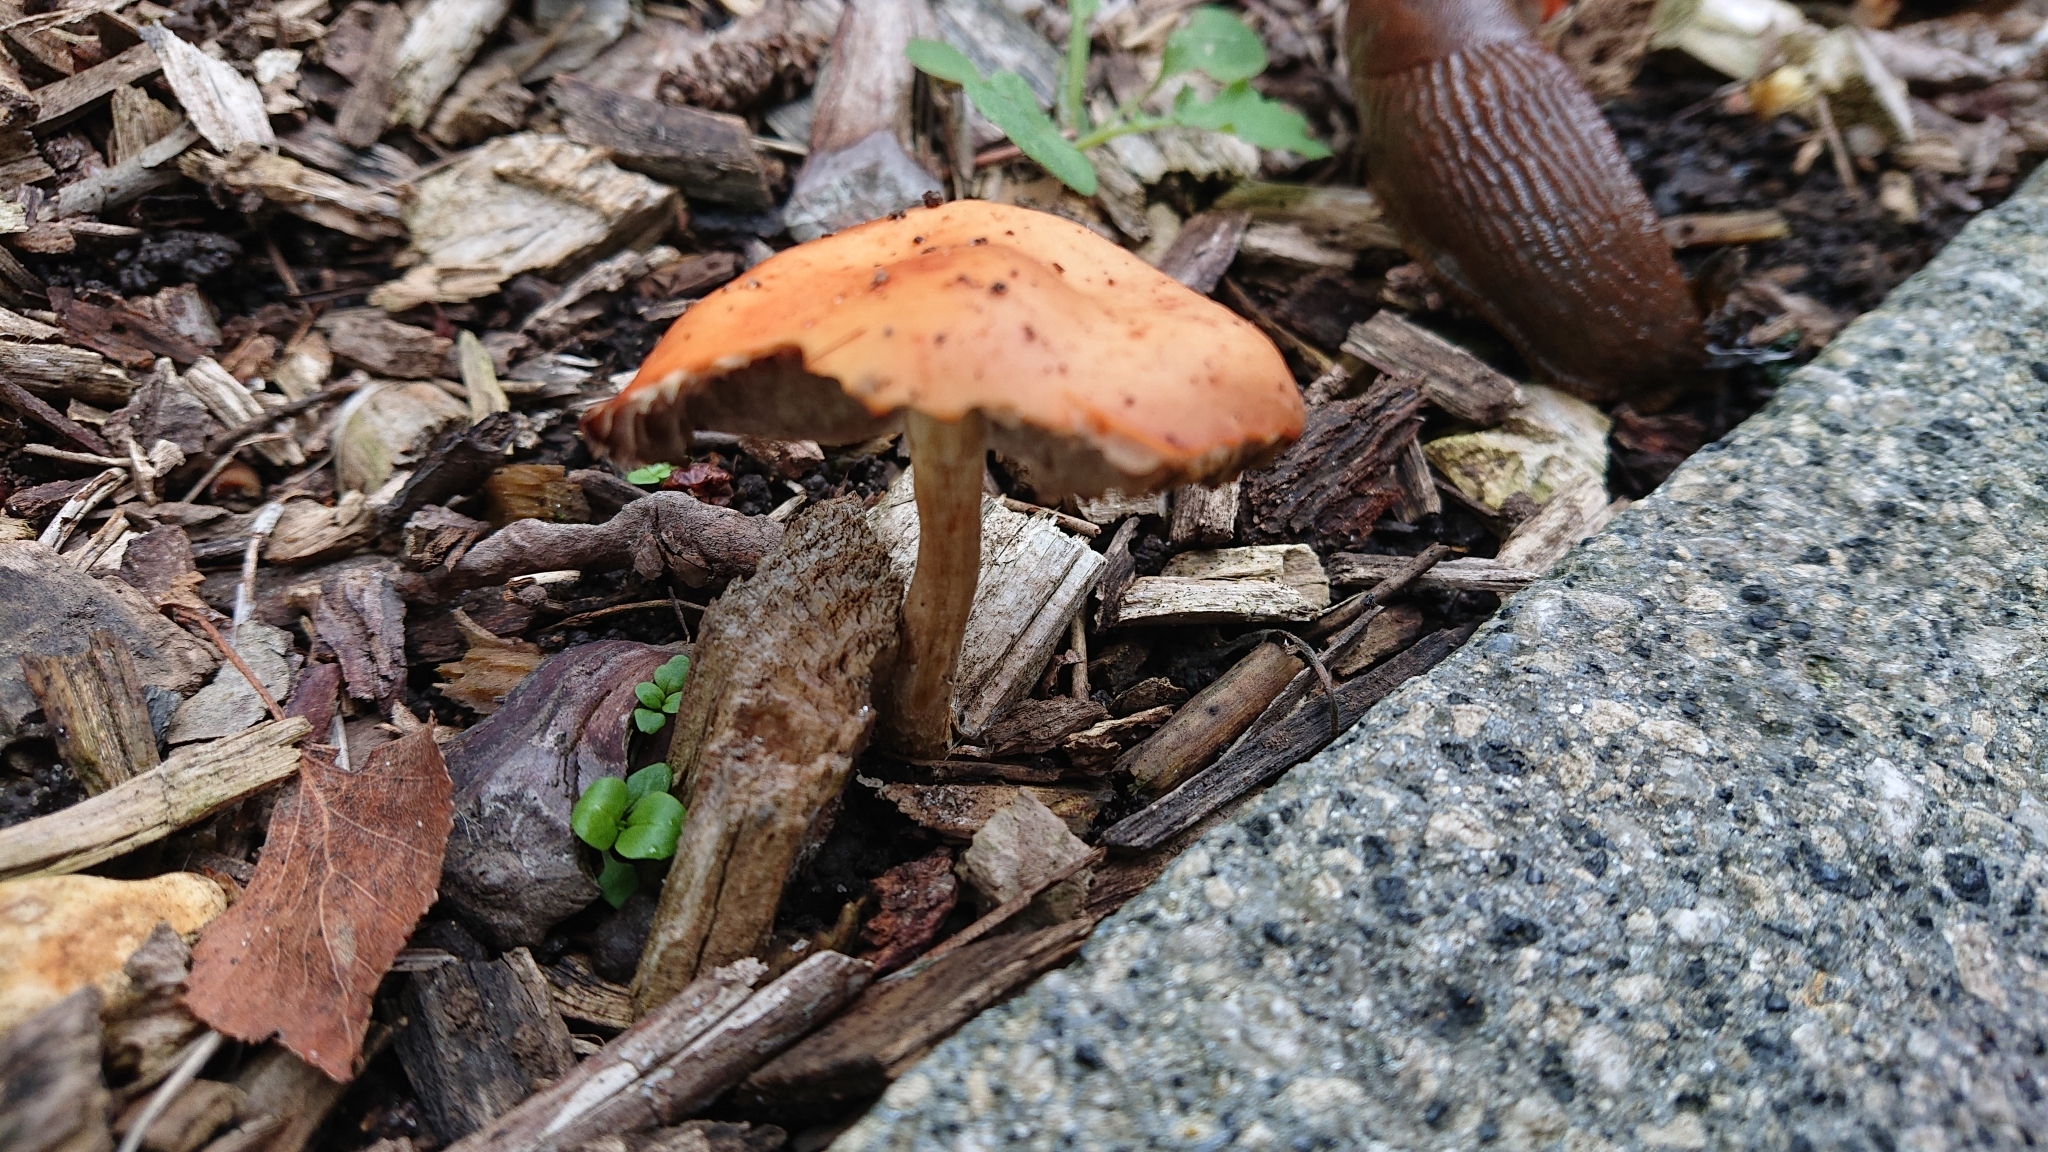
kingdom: Fungi
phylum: Basidiomycota
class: Agaricomycetes
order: Agaricales
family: Strophariaceae
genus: Leratiomyces
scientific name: Leratiomyces ceres
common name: Redlead roundhead
